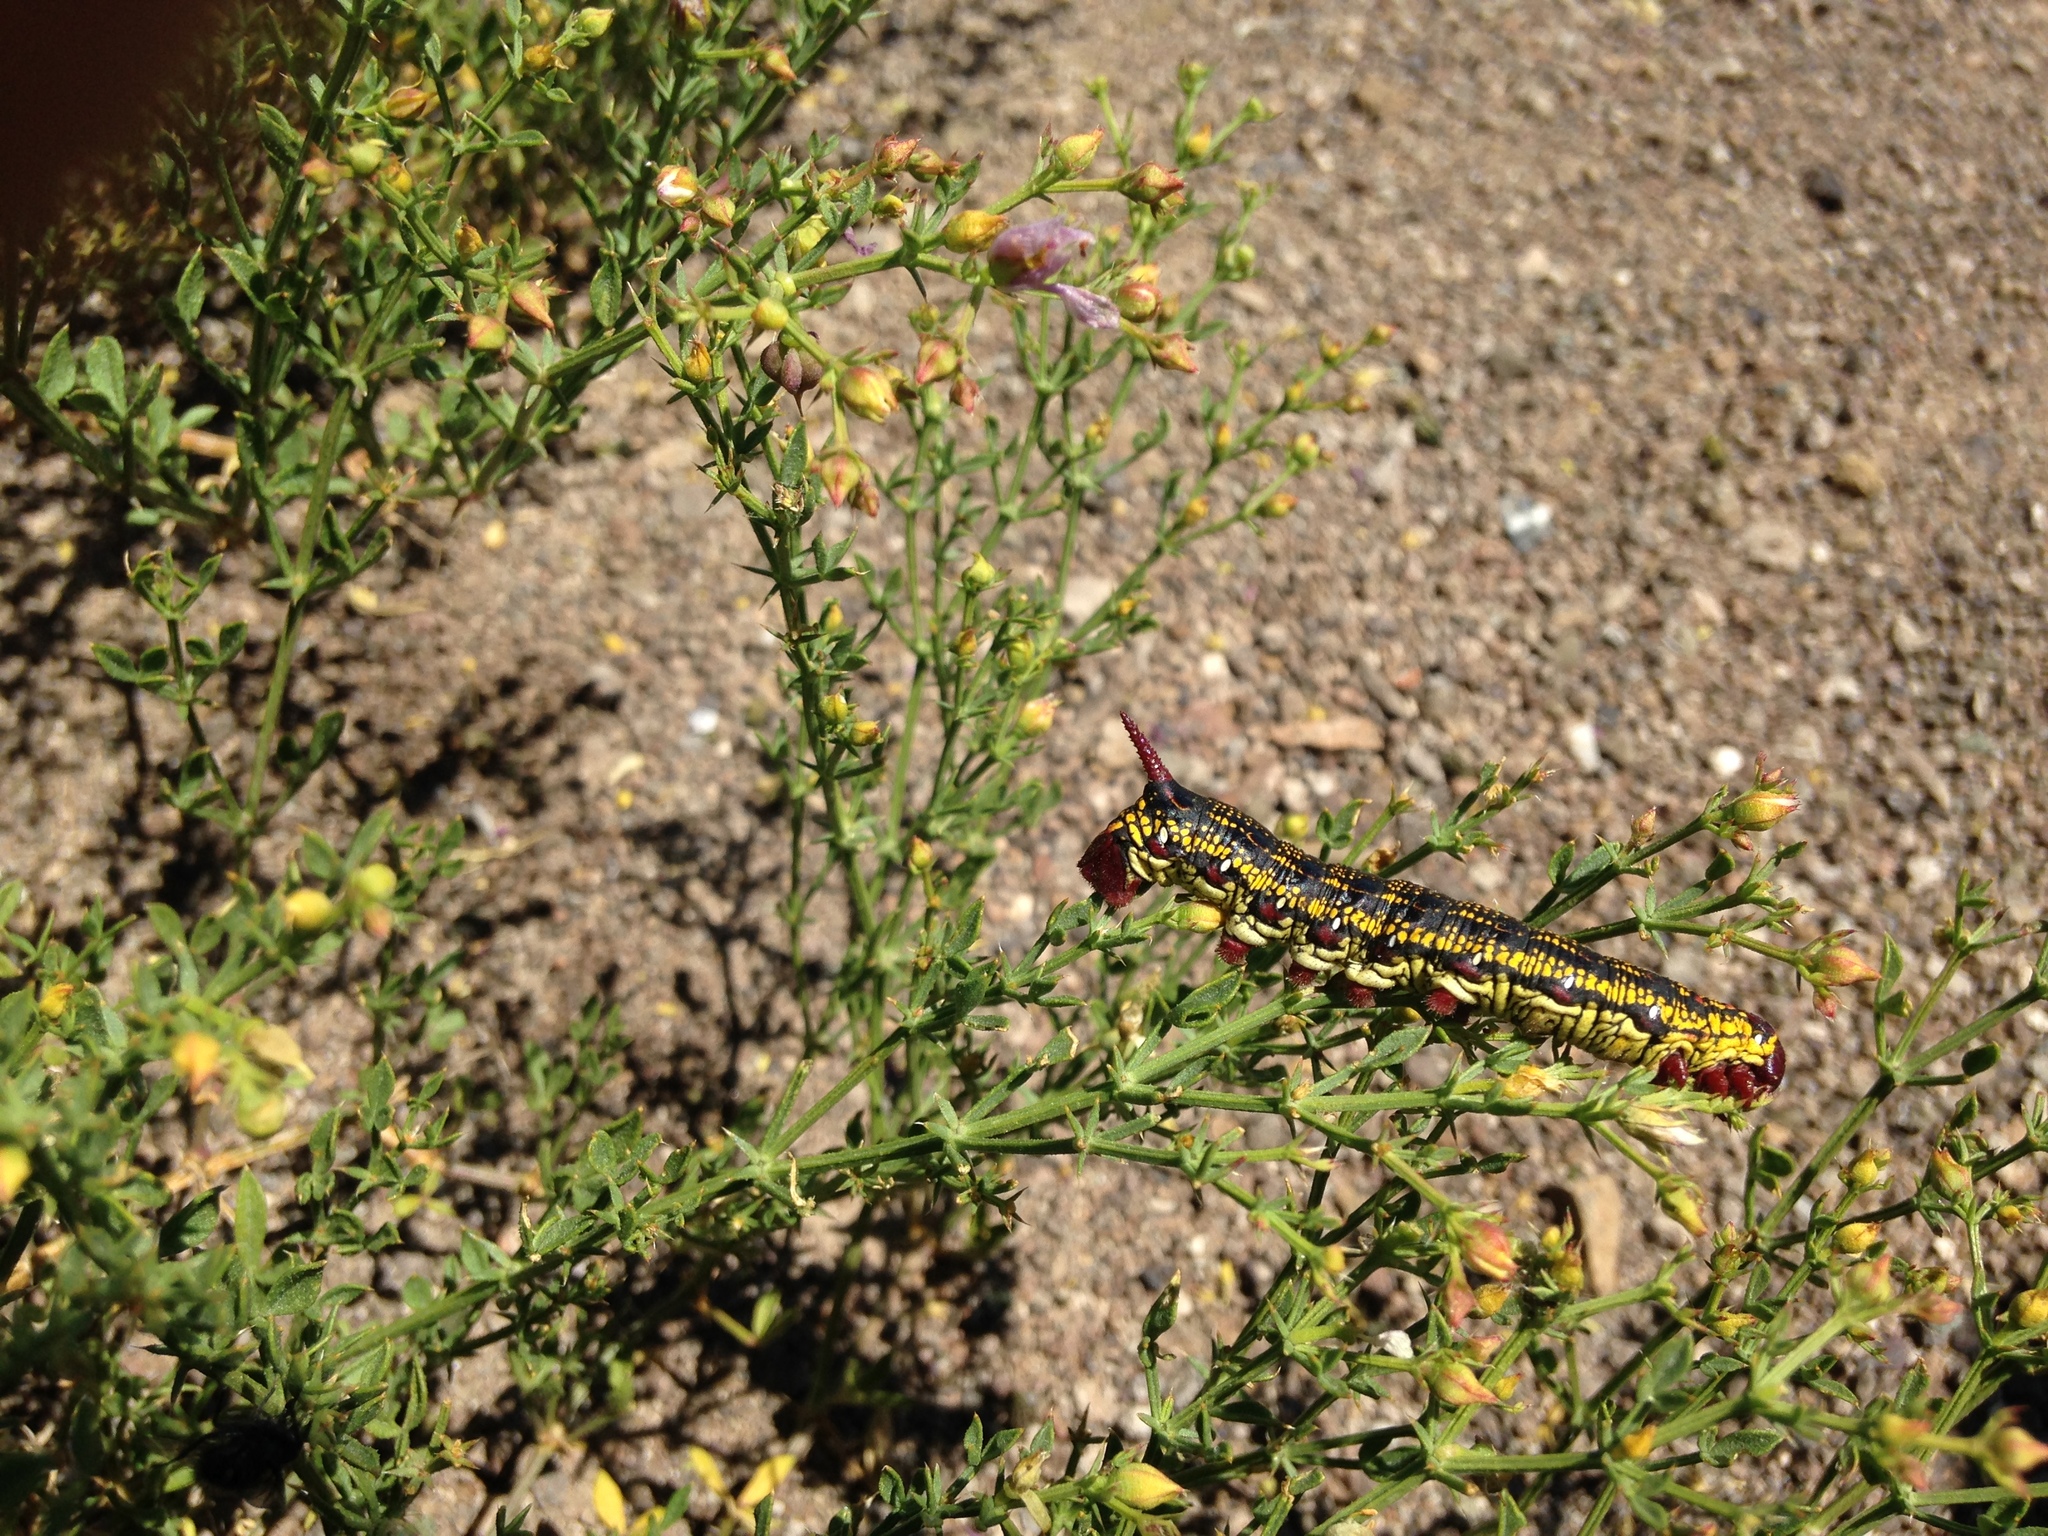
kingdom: Animalia
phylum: Arthropoda
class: Insecta
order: Lepidoptera
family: Sphingidae
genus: Hyles
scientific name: Hyles annei
